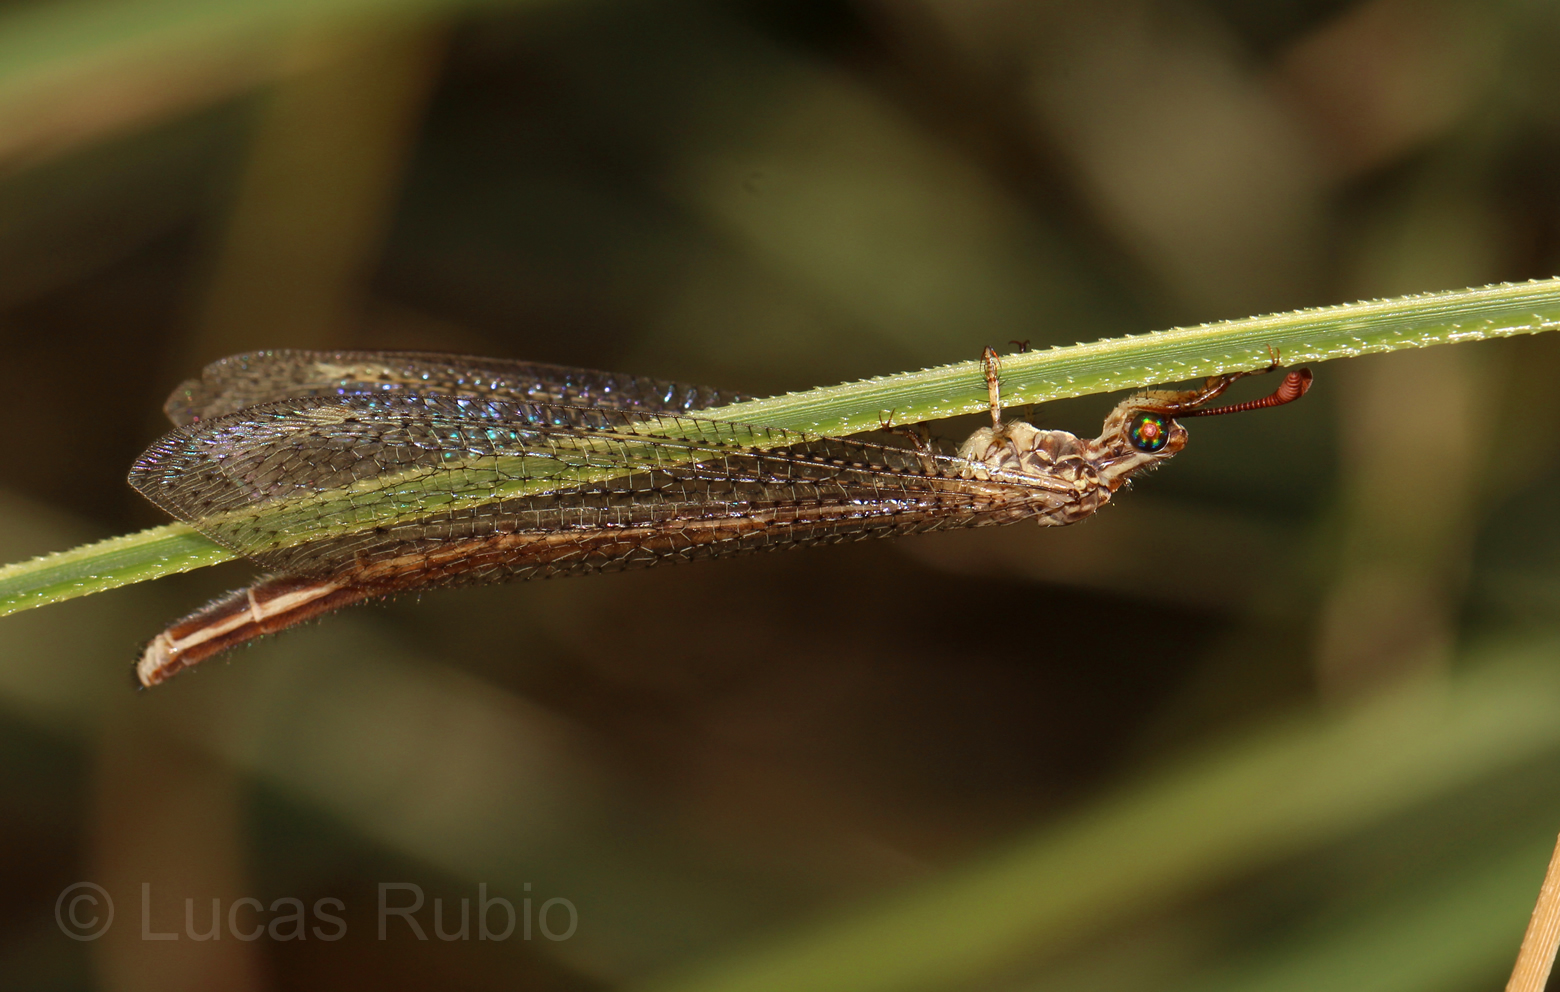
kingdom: Animalia
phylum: Arthropoda
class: Insecta
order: Neuroptera
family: Myrmeleontidae
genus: Argentoleon
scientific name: Argentoleon irrigatus
